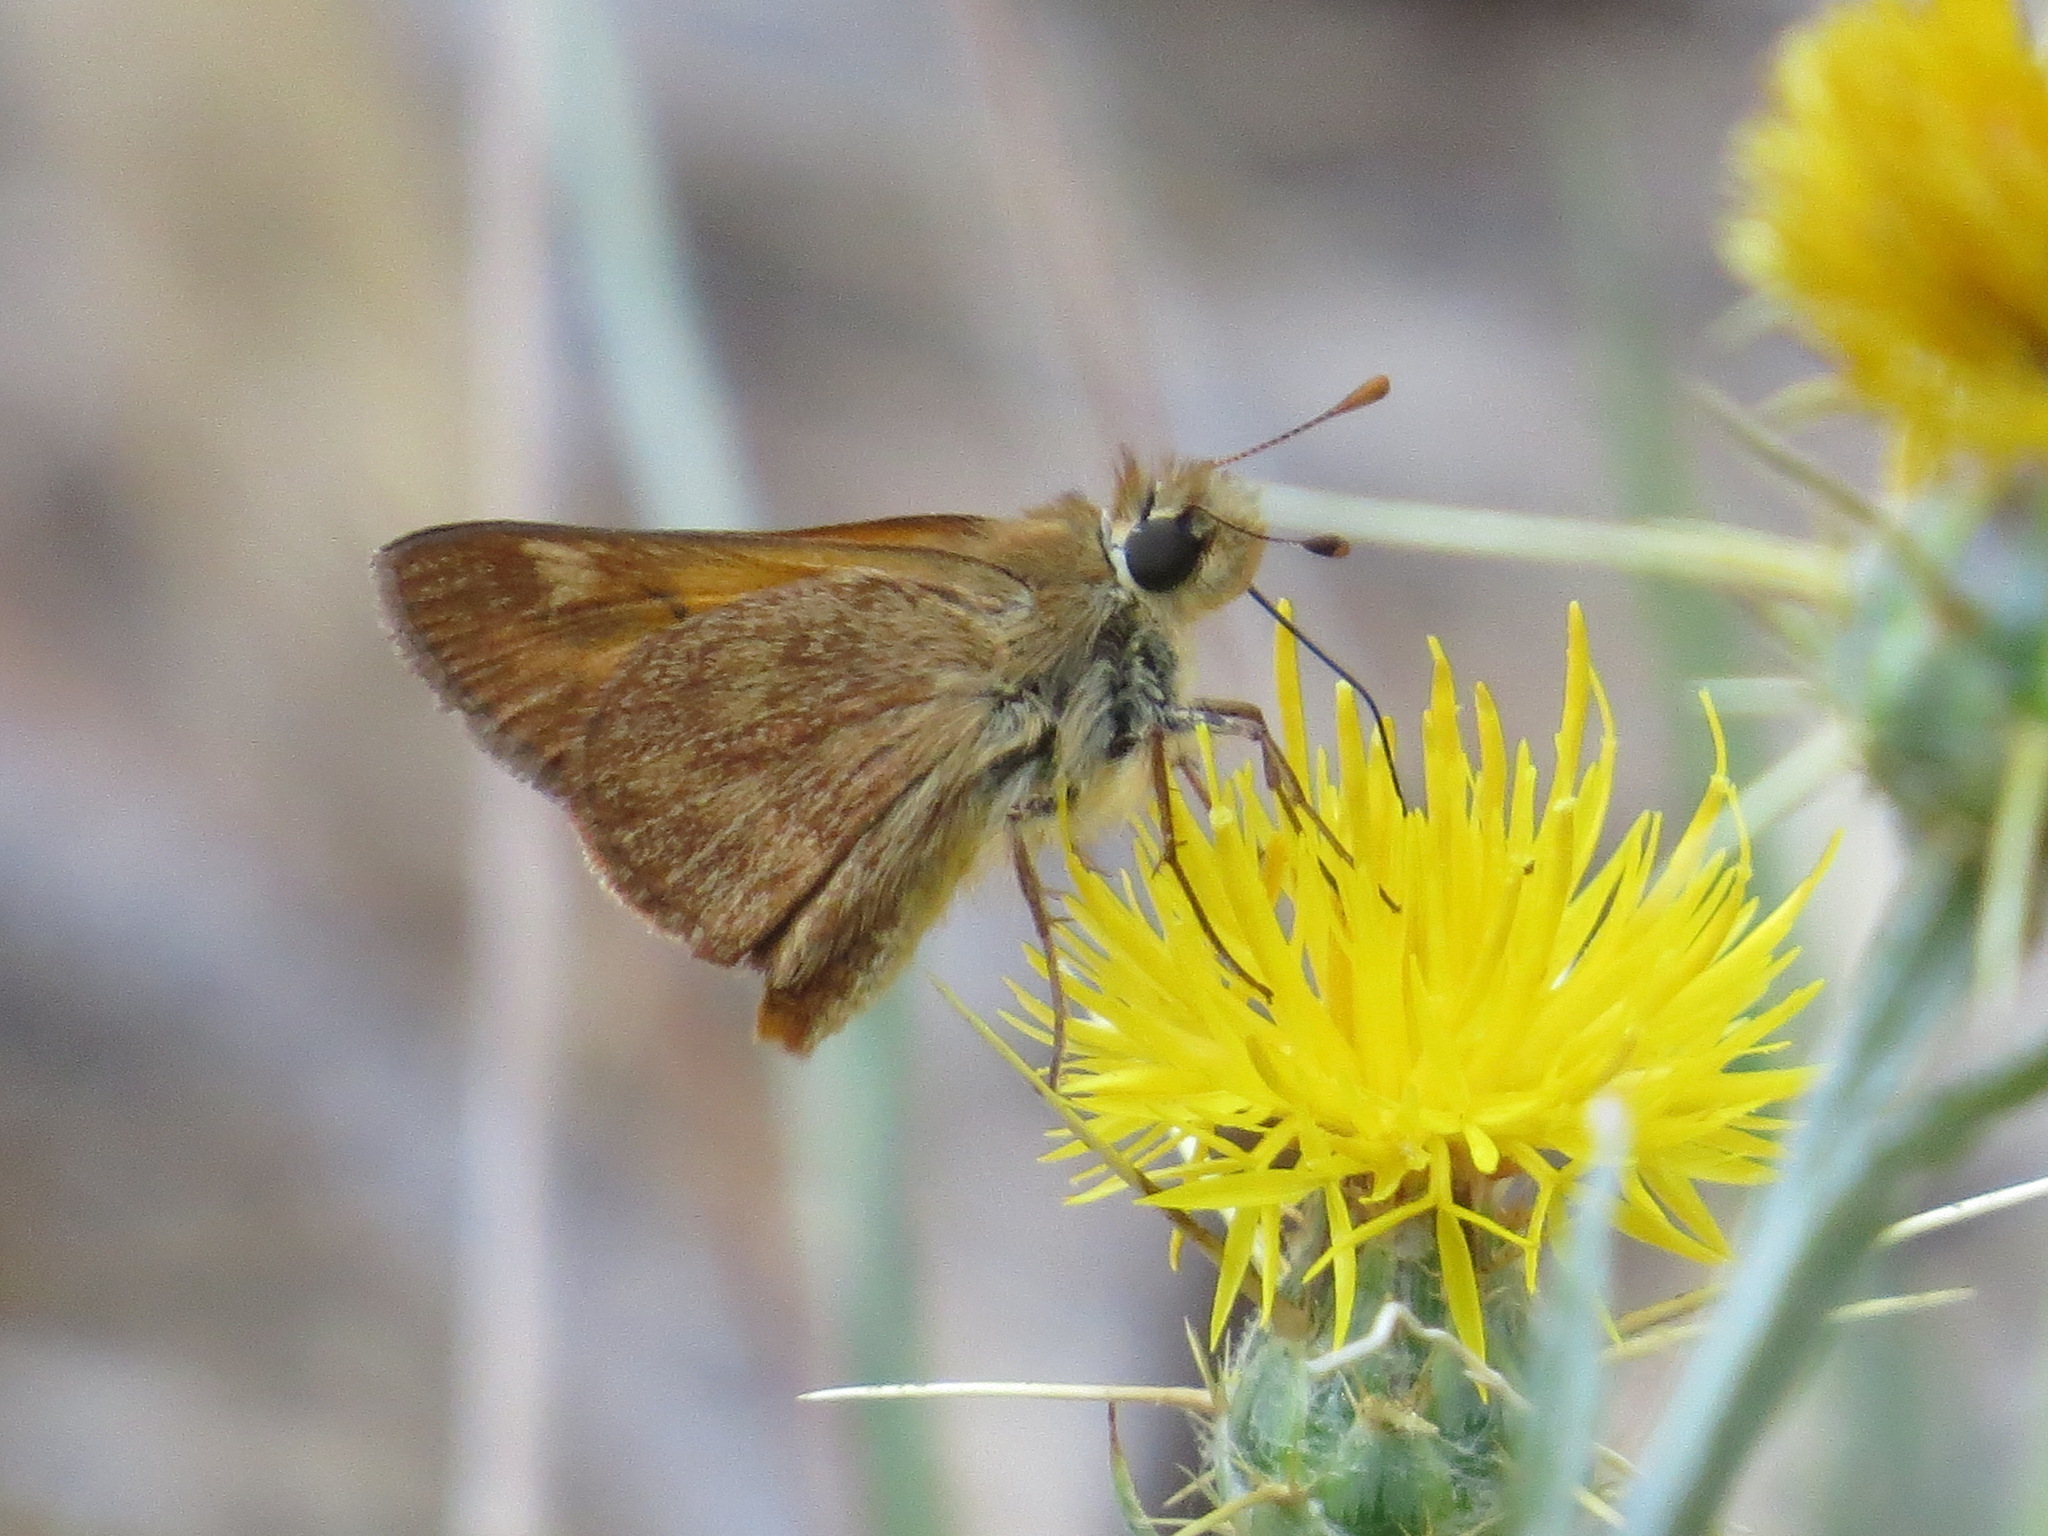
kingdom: Animalia
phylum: Arthropoda
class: Insecta
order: Lepidoptera
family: Hesperiidae
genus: Ochlodes
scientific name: Ochlodes sylvanoides
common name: Woodland skipper
